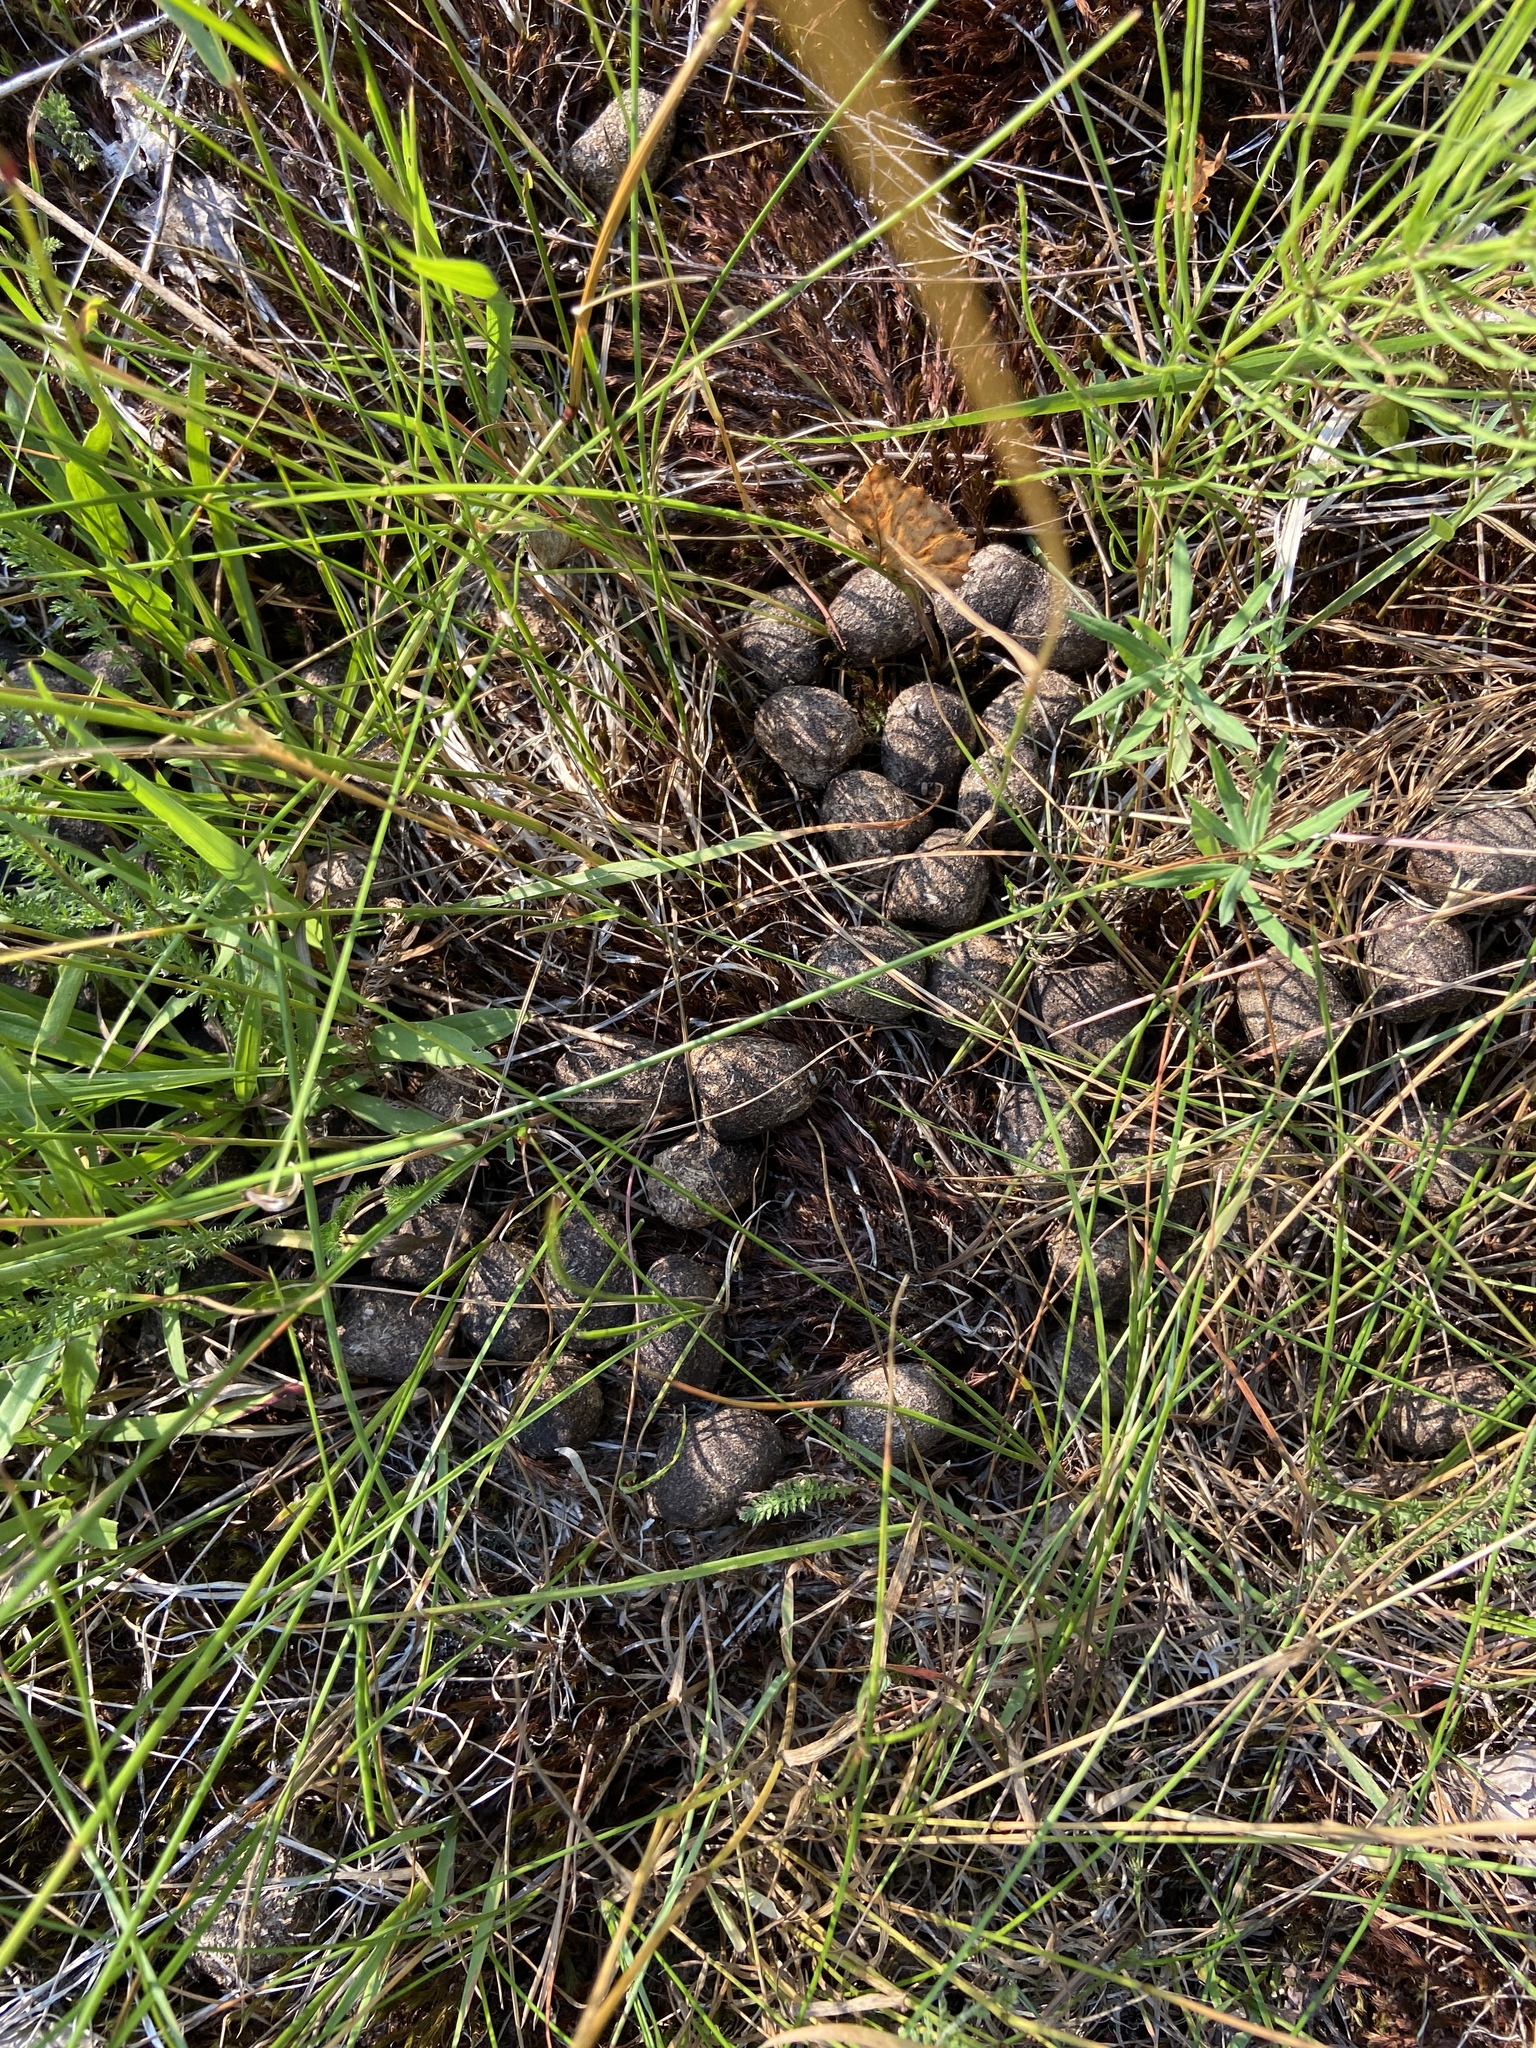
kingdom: Animalia
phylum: Chordata
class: Mammalia
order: Artiodactyla
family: Cervidae
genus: Alces
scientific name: Alces alces
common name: Moose
